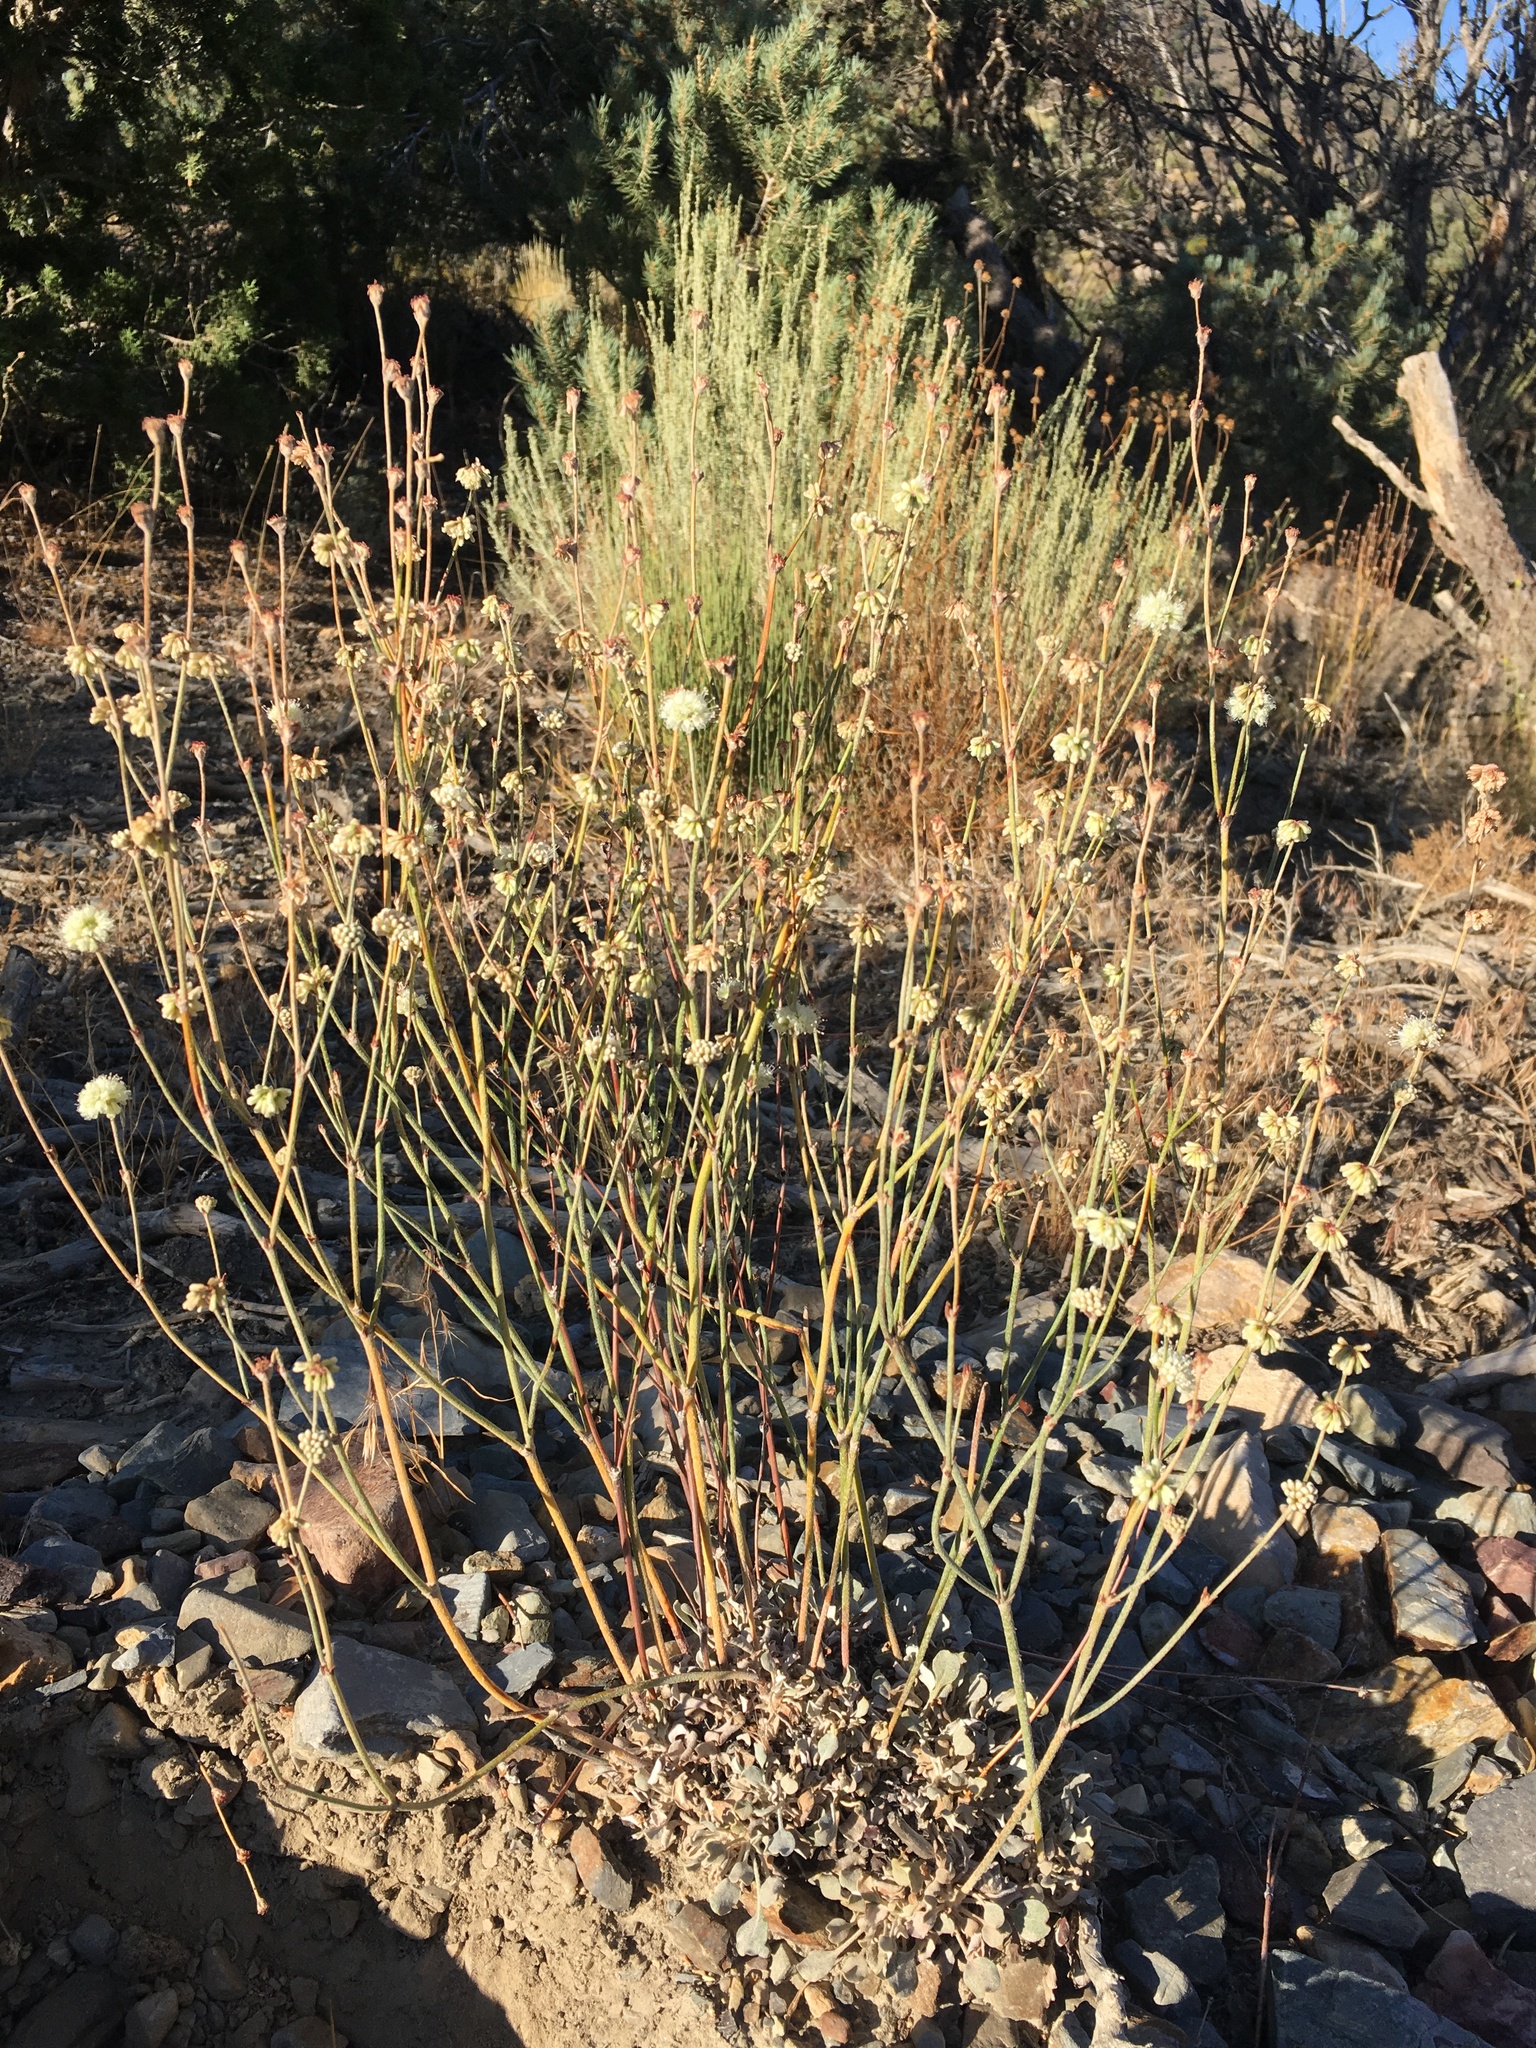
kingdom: Plantae
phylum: Tracheophyta
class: Magnoliopsida
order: Caryophyllales
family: Polygonaceae
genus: Eriogonum
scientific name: Eriogonum mensicola
